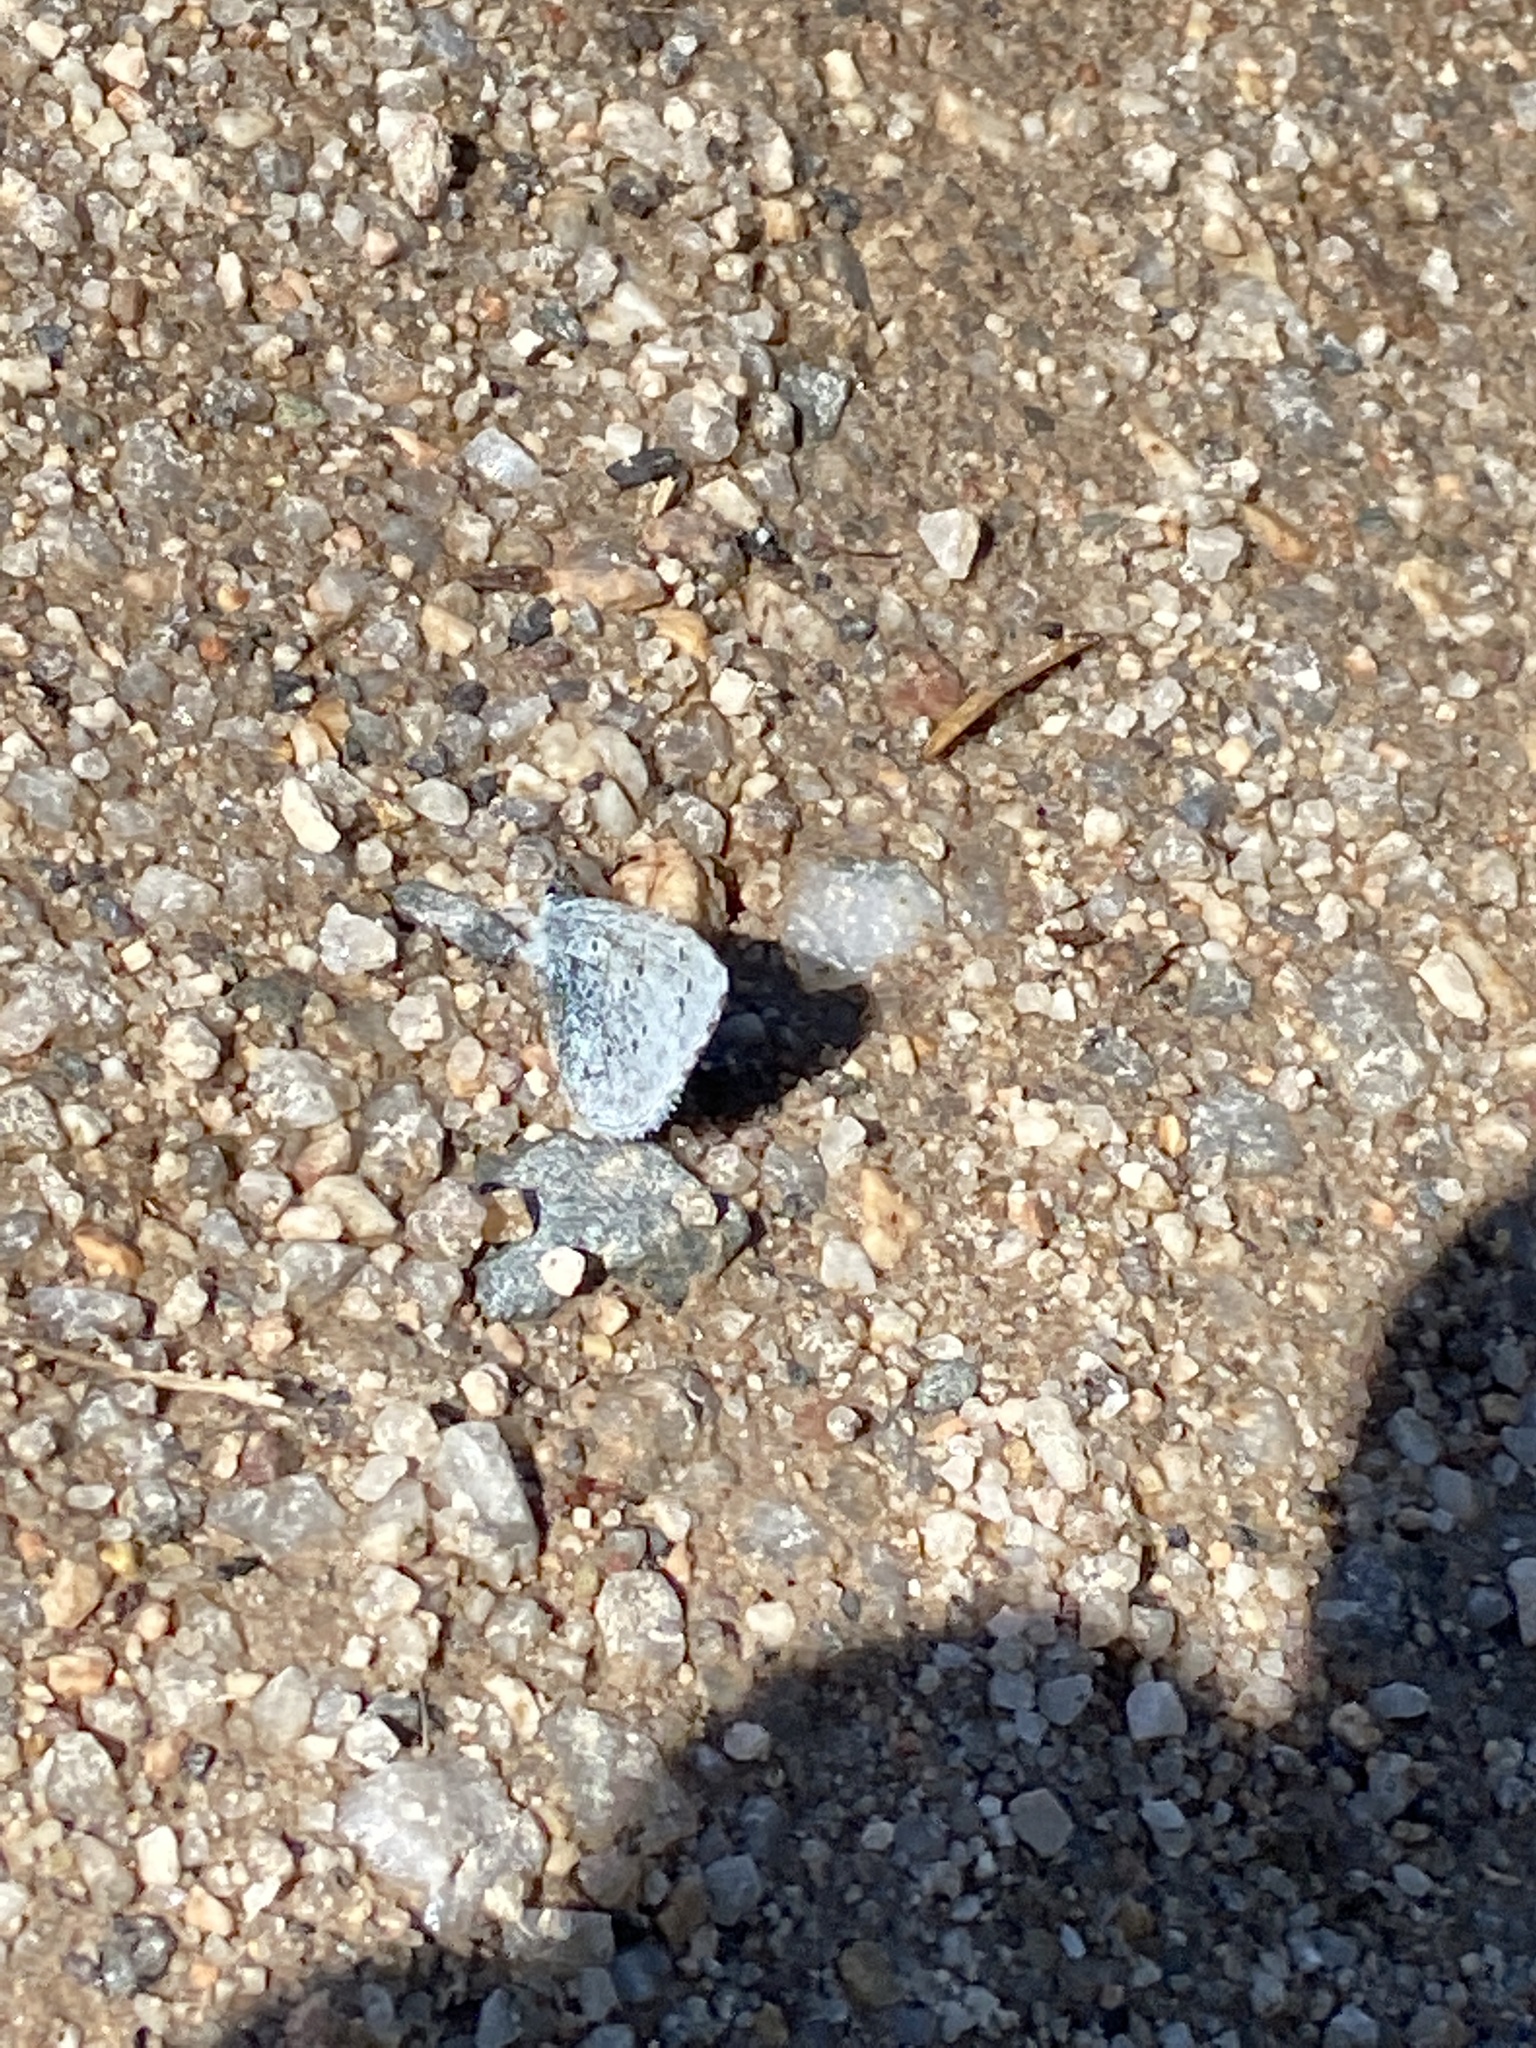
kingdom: Animalia
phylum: Arthropoda
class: Insecta
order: Lepidoptera
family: Lycaenidae
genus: Celastrina
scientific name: Celastrina argiolus
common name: Holly blue
